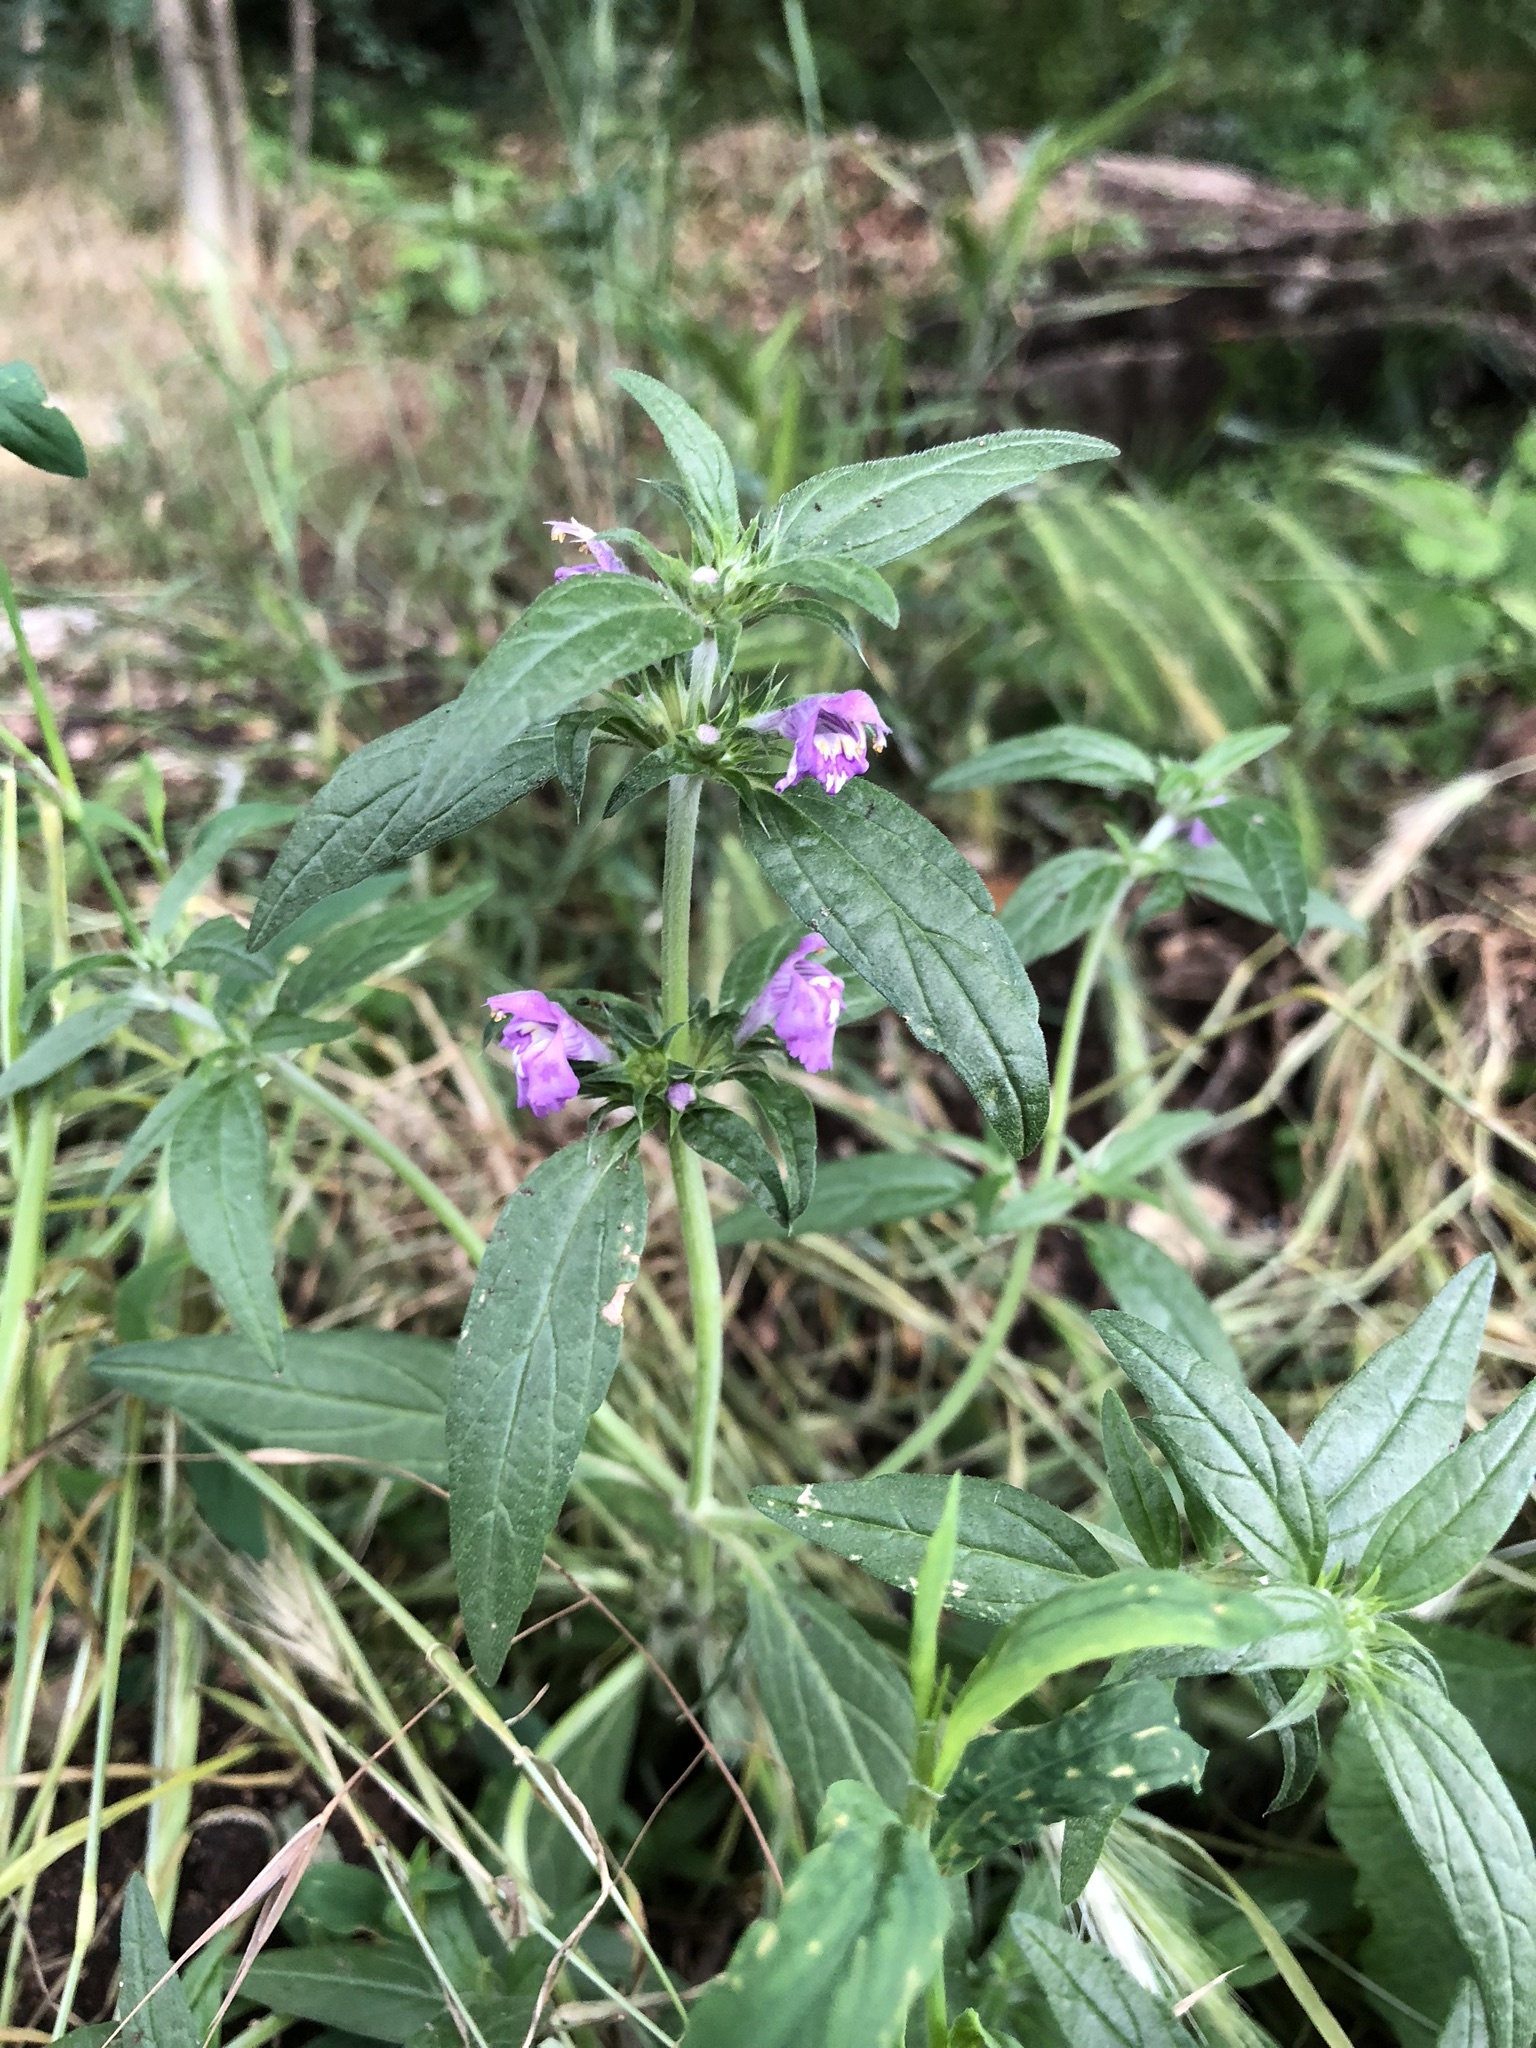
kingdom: Plantae
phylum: Tracheophyta
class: Magnoliopsida
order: Lamiales
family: Lamiaceae
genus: Galeopsis
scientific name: Galeopsis angustifolia
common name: Red hemp-nettle
